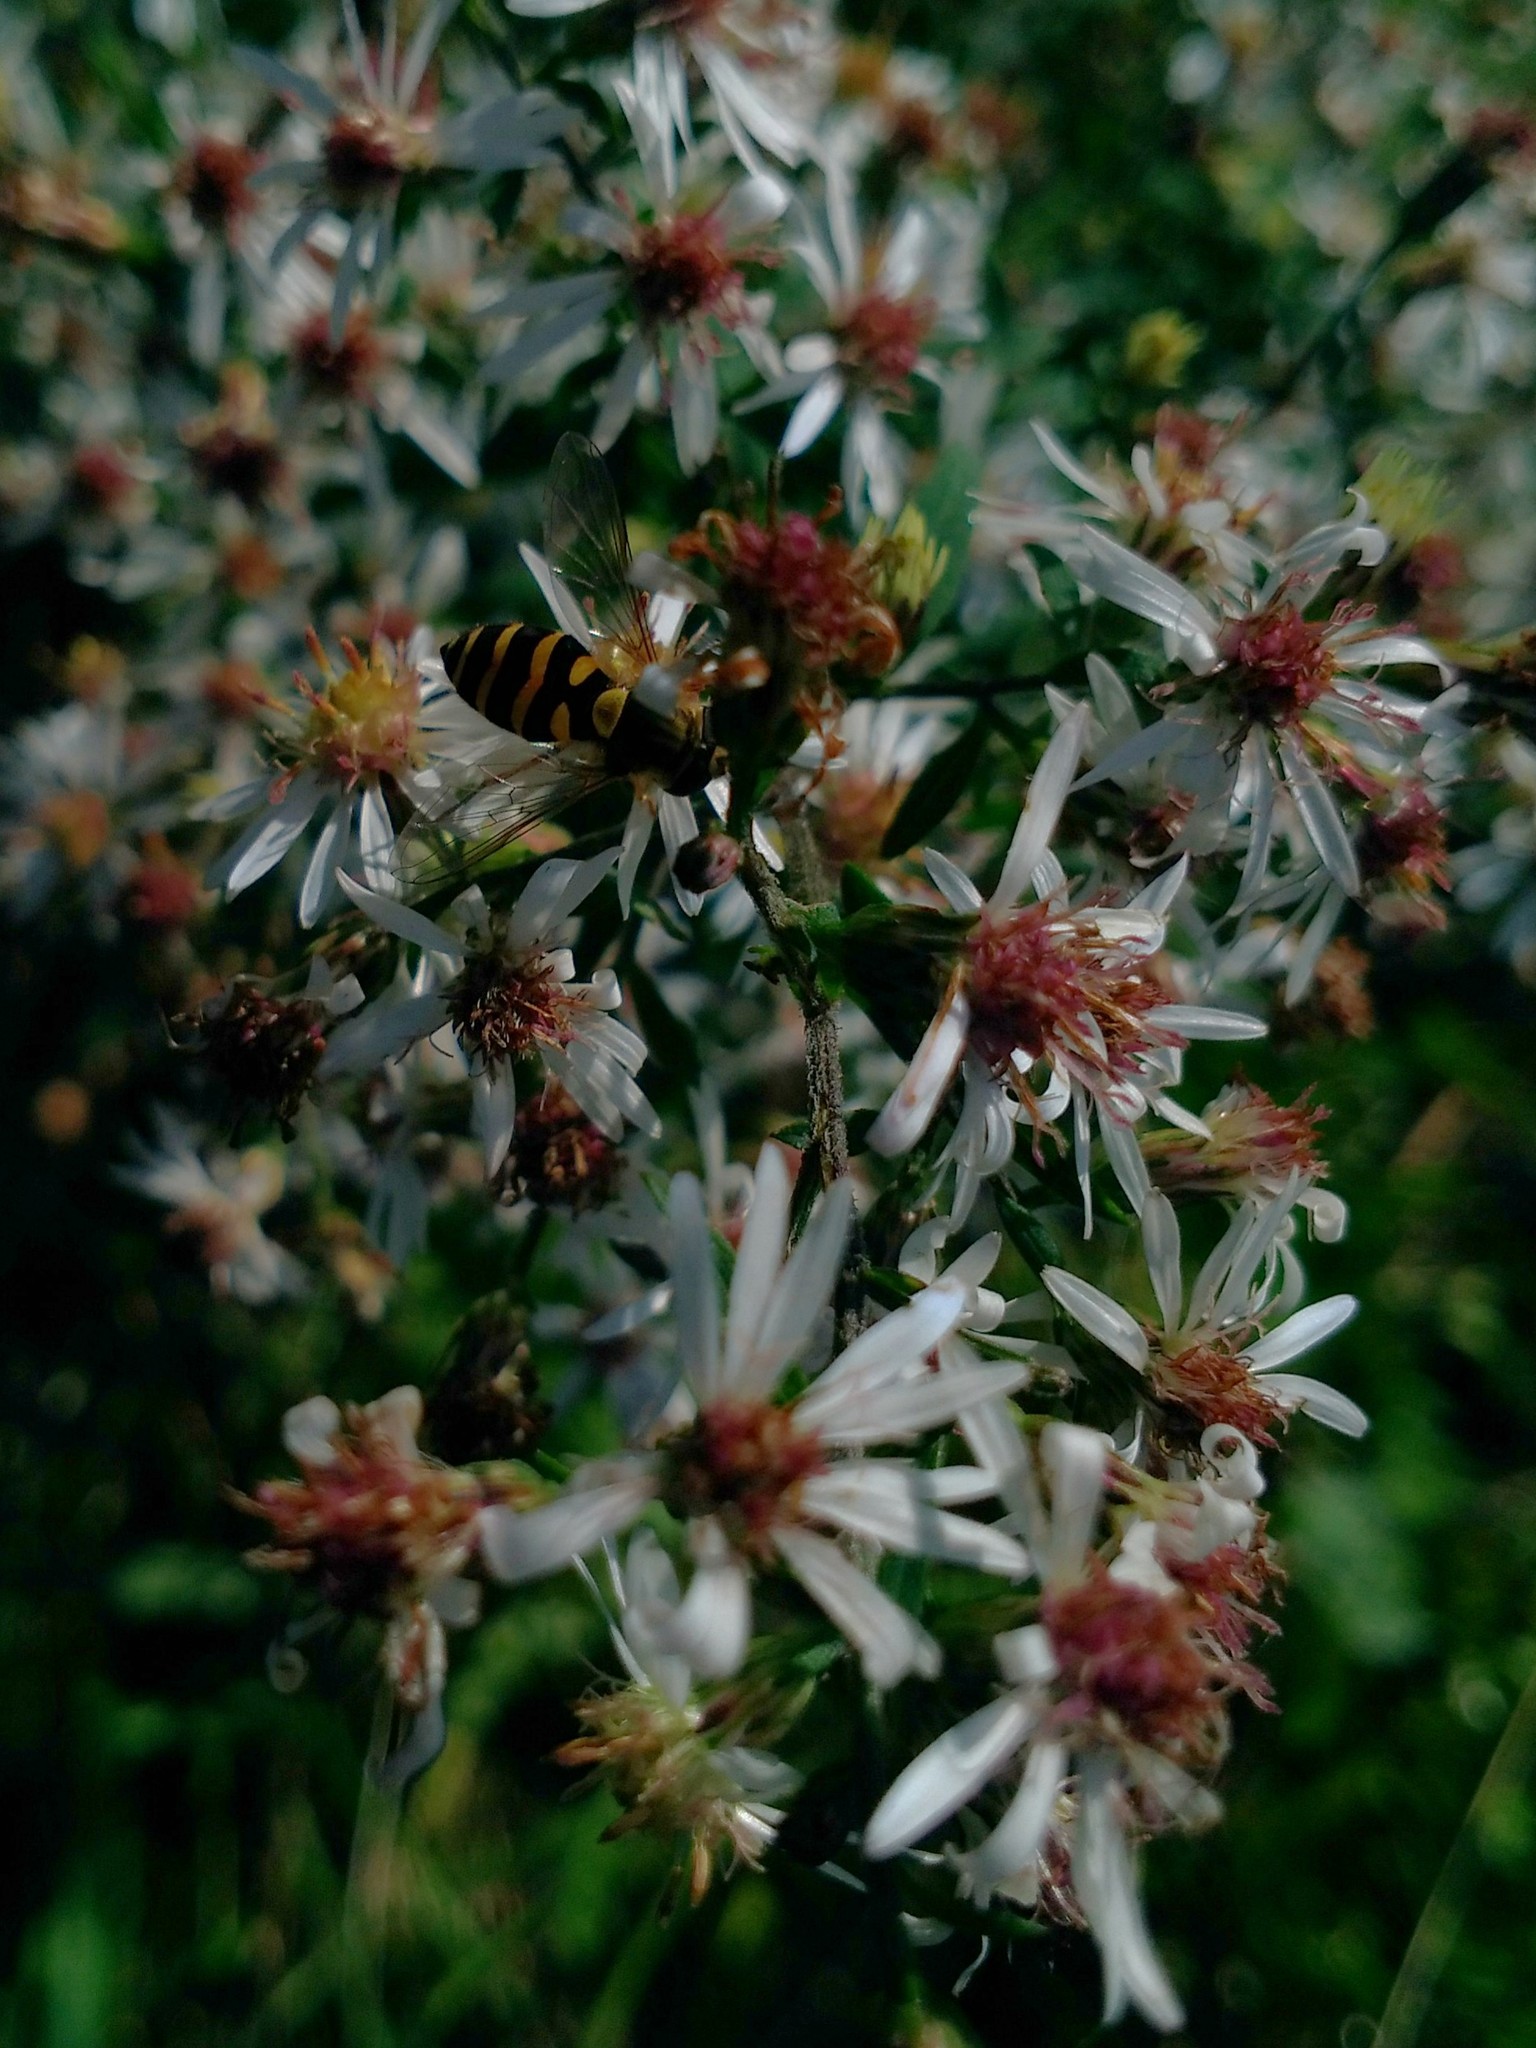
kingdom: Animalia
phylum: Arthropoda
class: Insecta
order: Diptera
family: Syrphidae
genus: Syrphus
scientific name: Syrphus
